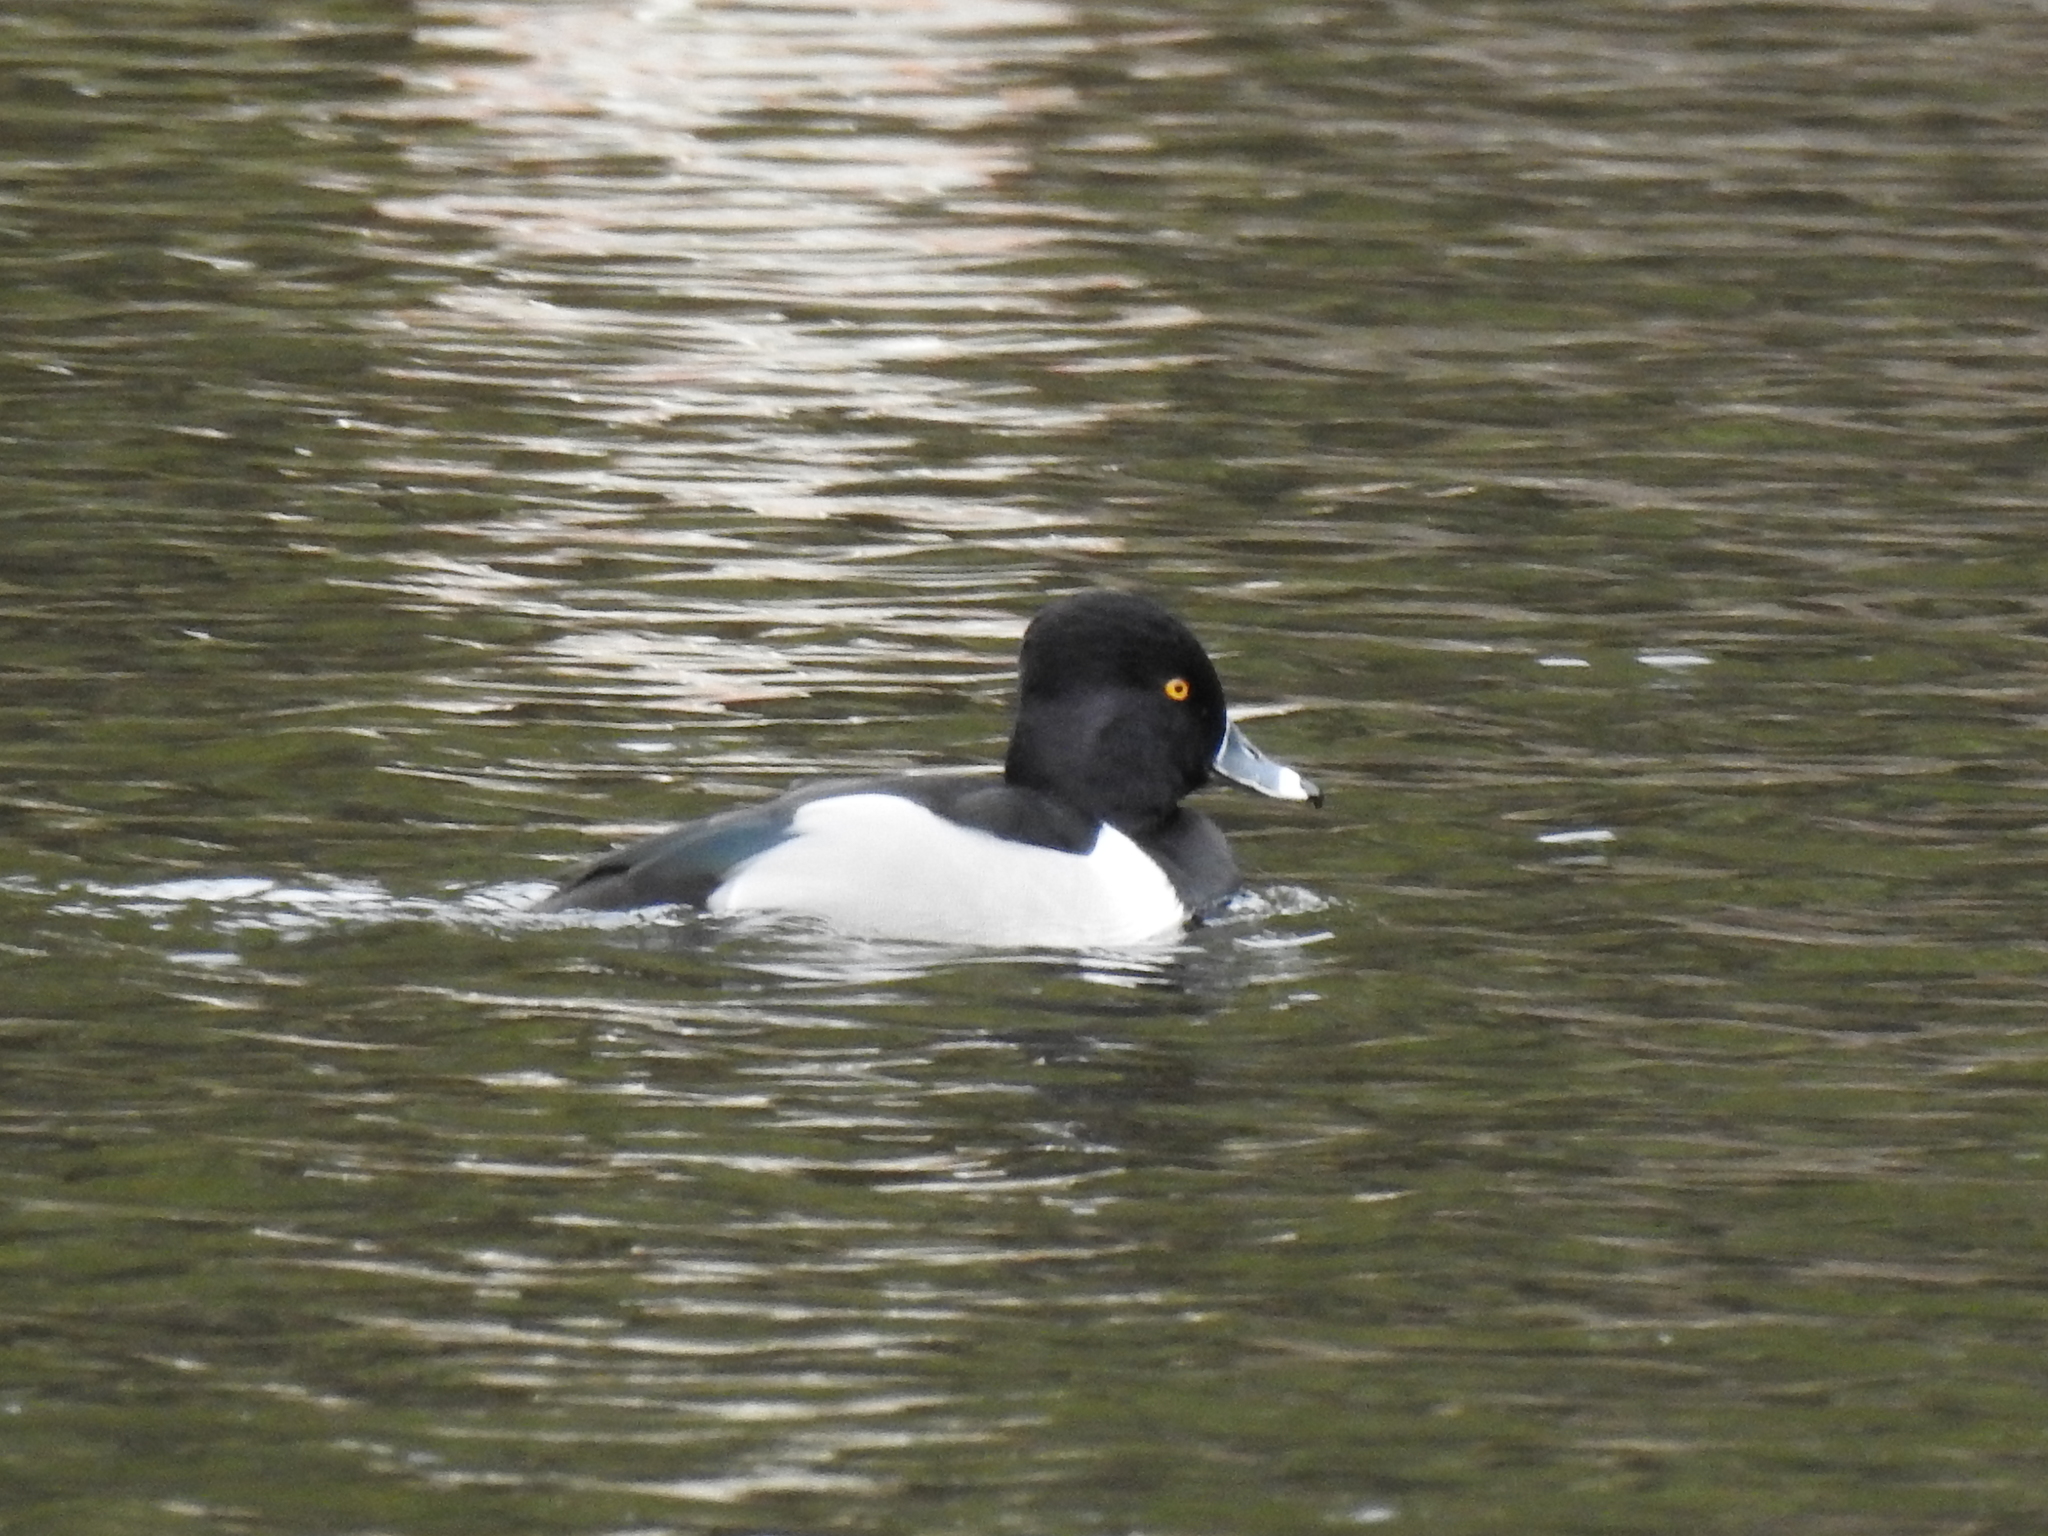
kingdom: Animalia
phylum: Chordata
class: Aves
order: Anseriformes
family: Anatidae
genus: Aythya
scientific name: Aythya collaris
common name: Ring-necked duck
